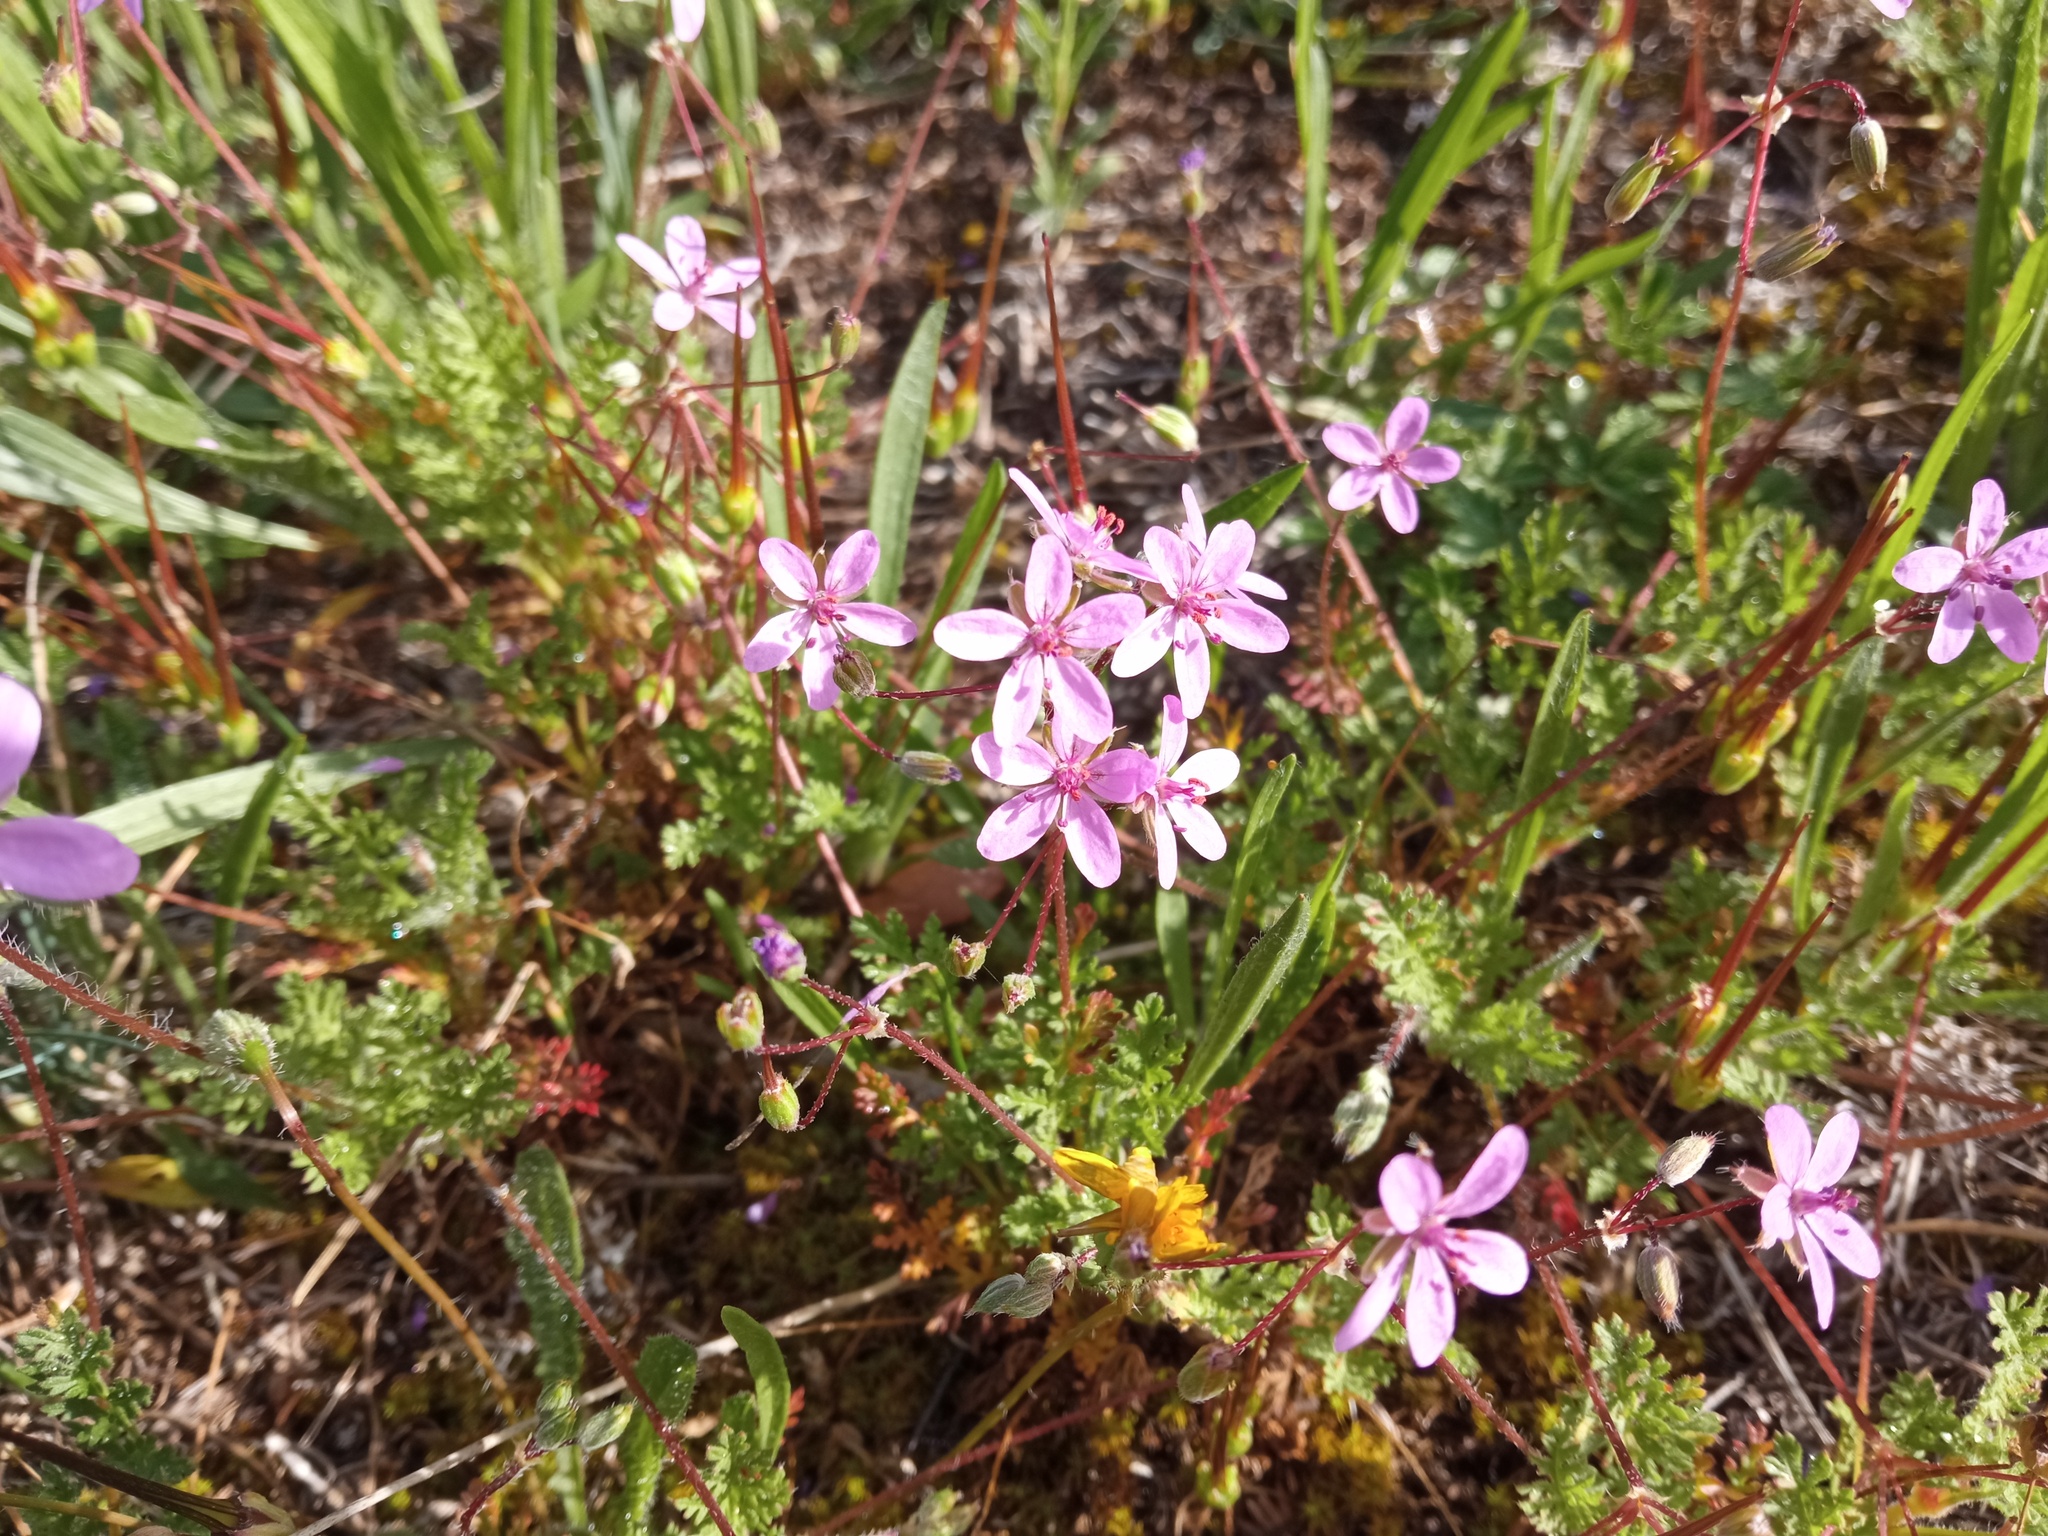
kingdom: Plantae
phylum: Tracheophyta
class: Magnoliopsida
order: Geraniales
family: Geraniaceae
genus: Erodium
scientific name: Erodium cicutarium
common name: Common stork's-bill
